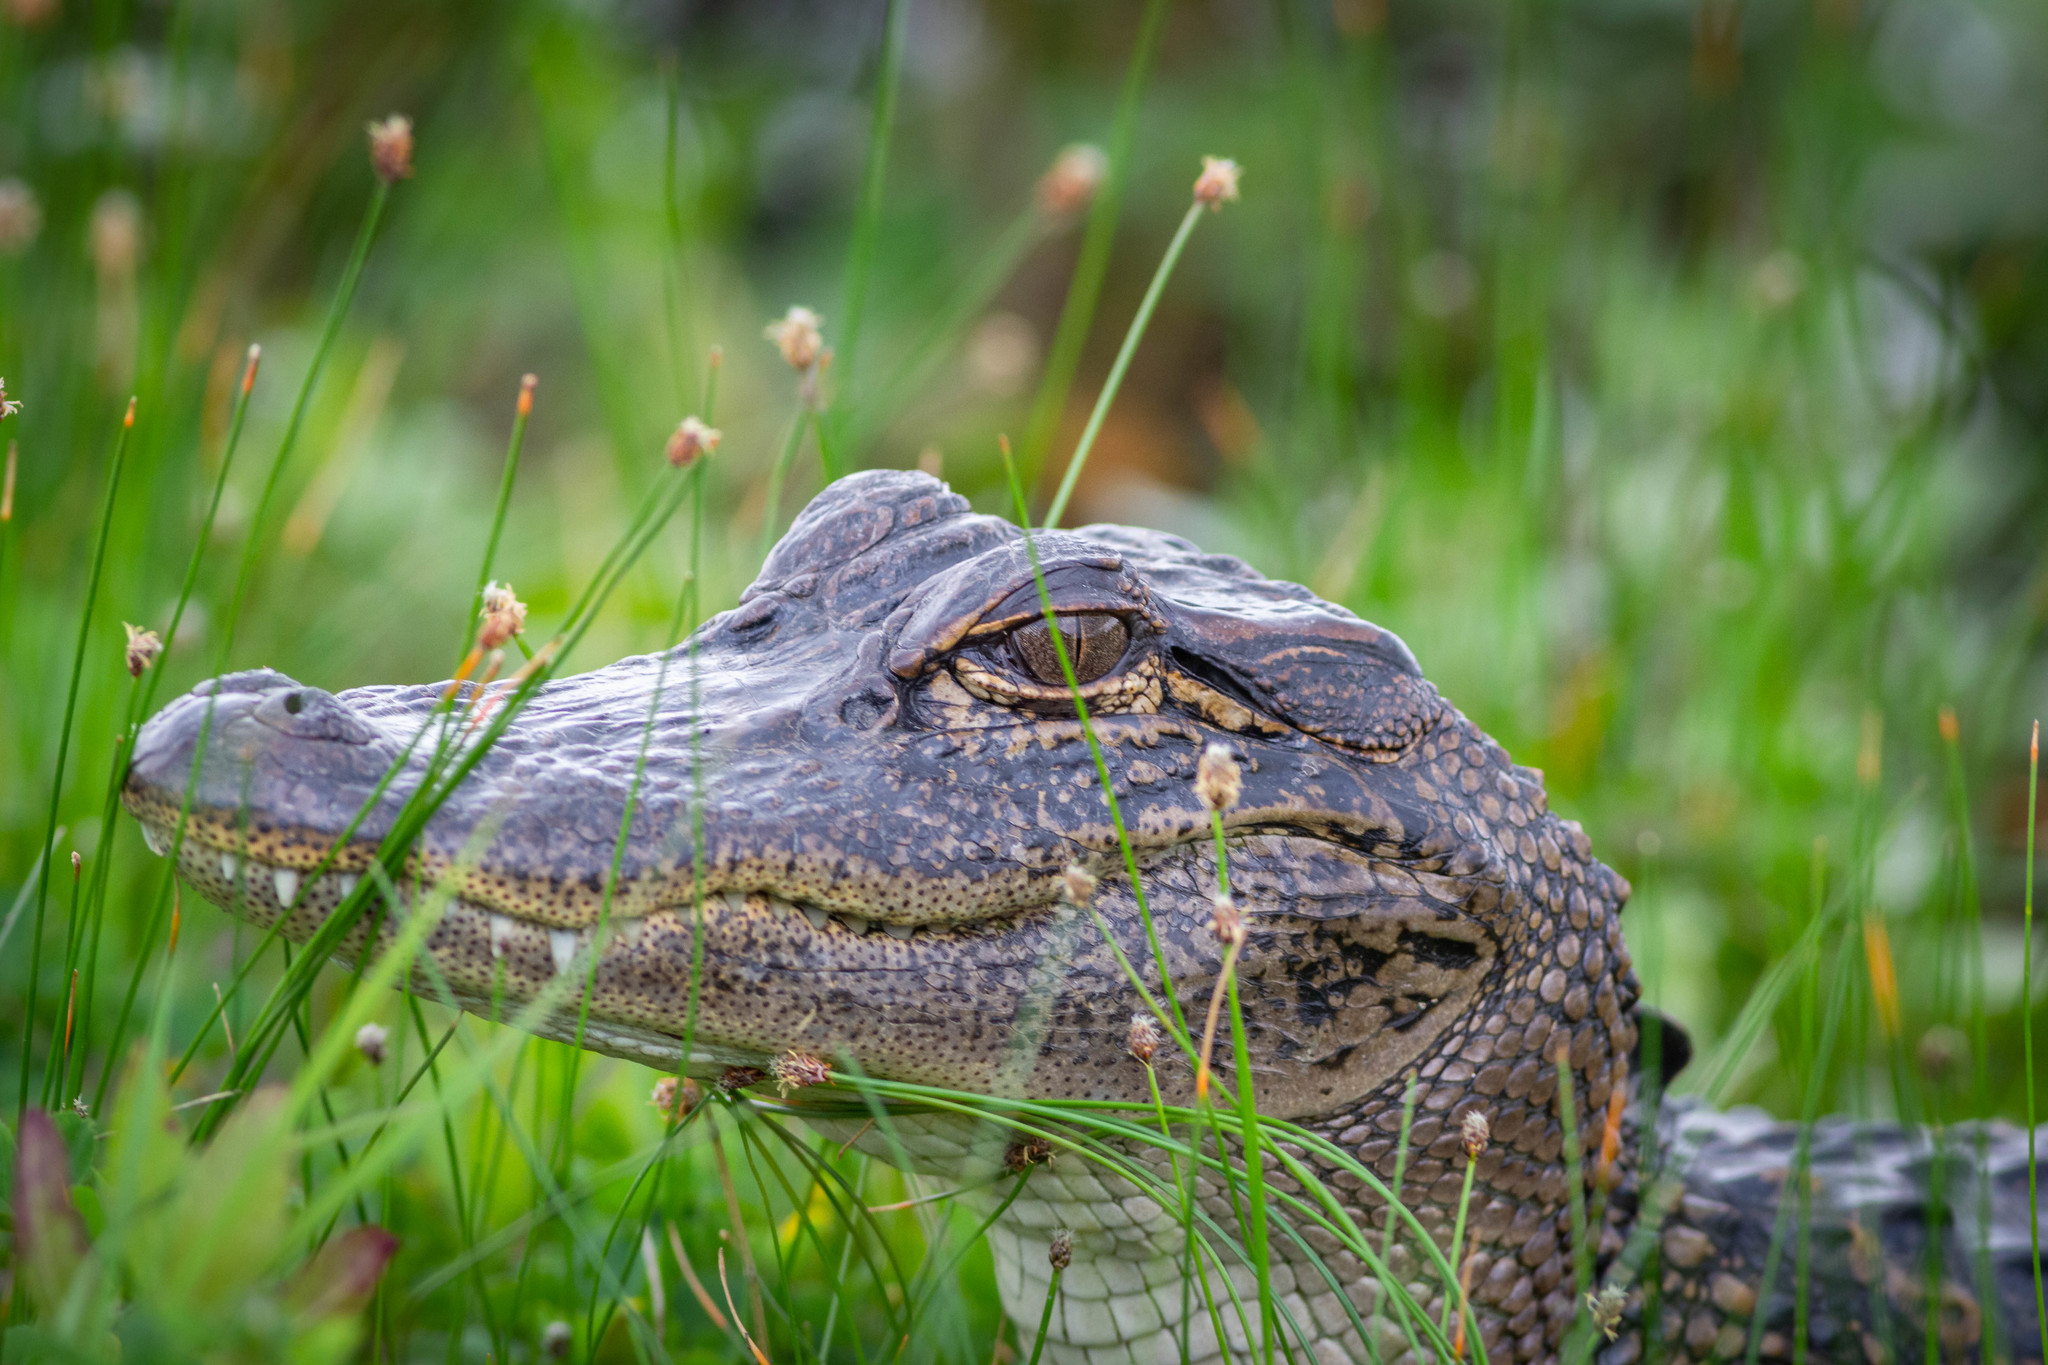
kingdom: Animalia
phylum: Chordata
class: Crocodylia
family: Alligatoridae
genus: Alligator
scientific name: Alligator mississippiensis
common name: American alligator
